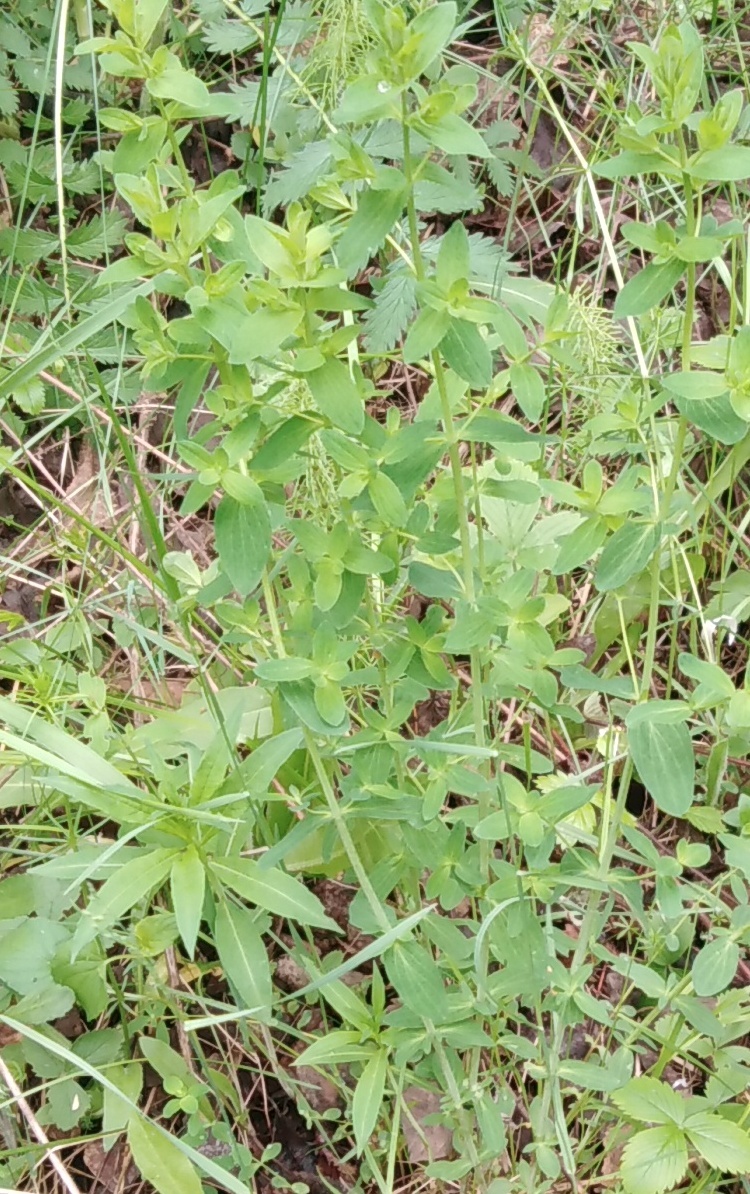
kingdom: Plantae
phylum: Tracheophyta
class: Magnoliopsida
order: Malpighiales
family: Hypericaceae
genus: Hypericum
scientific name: Hypericum perforatum
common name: Common st. johnswort
